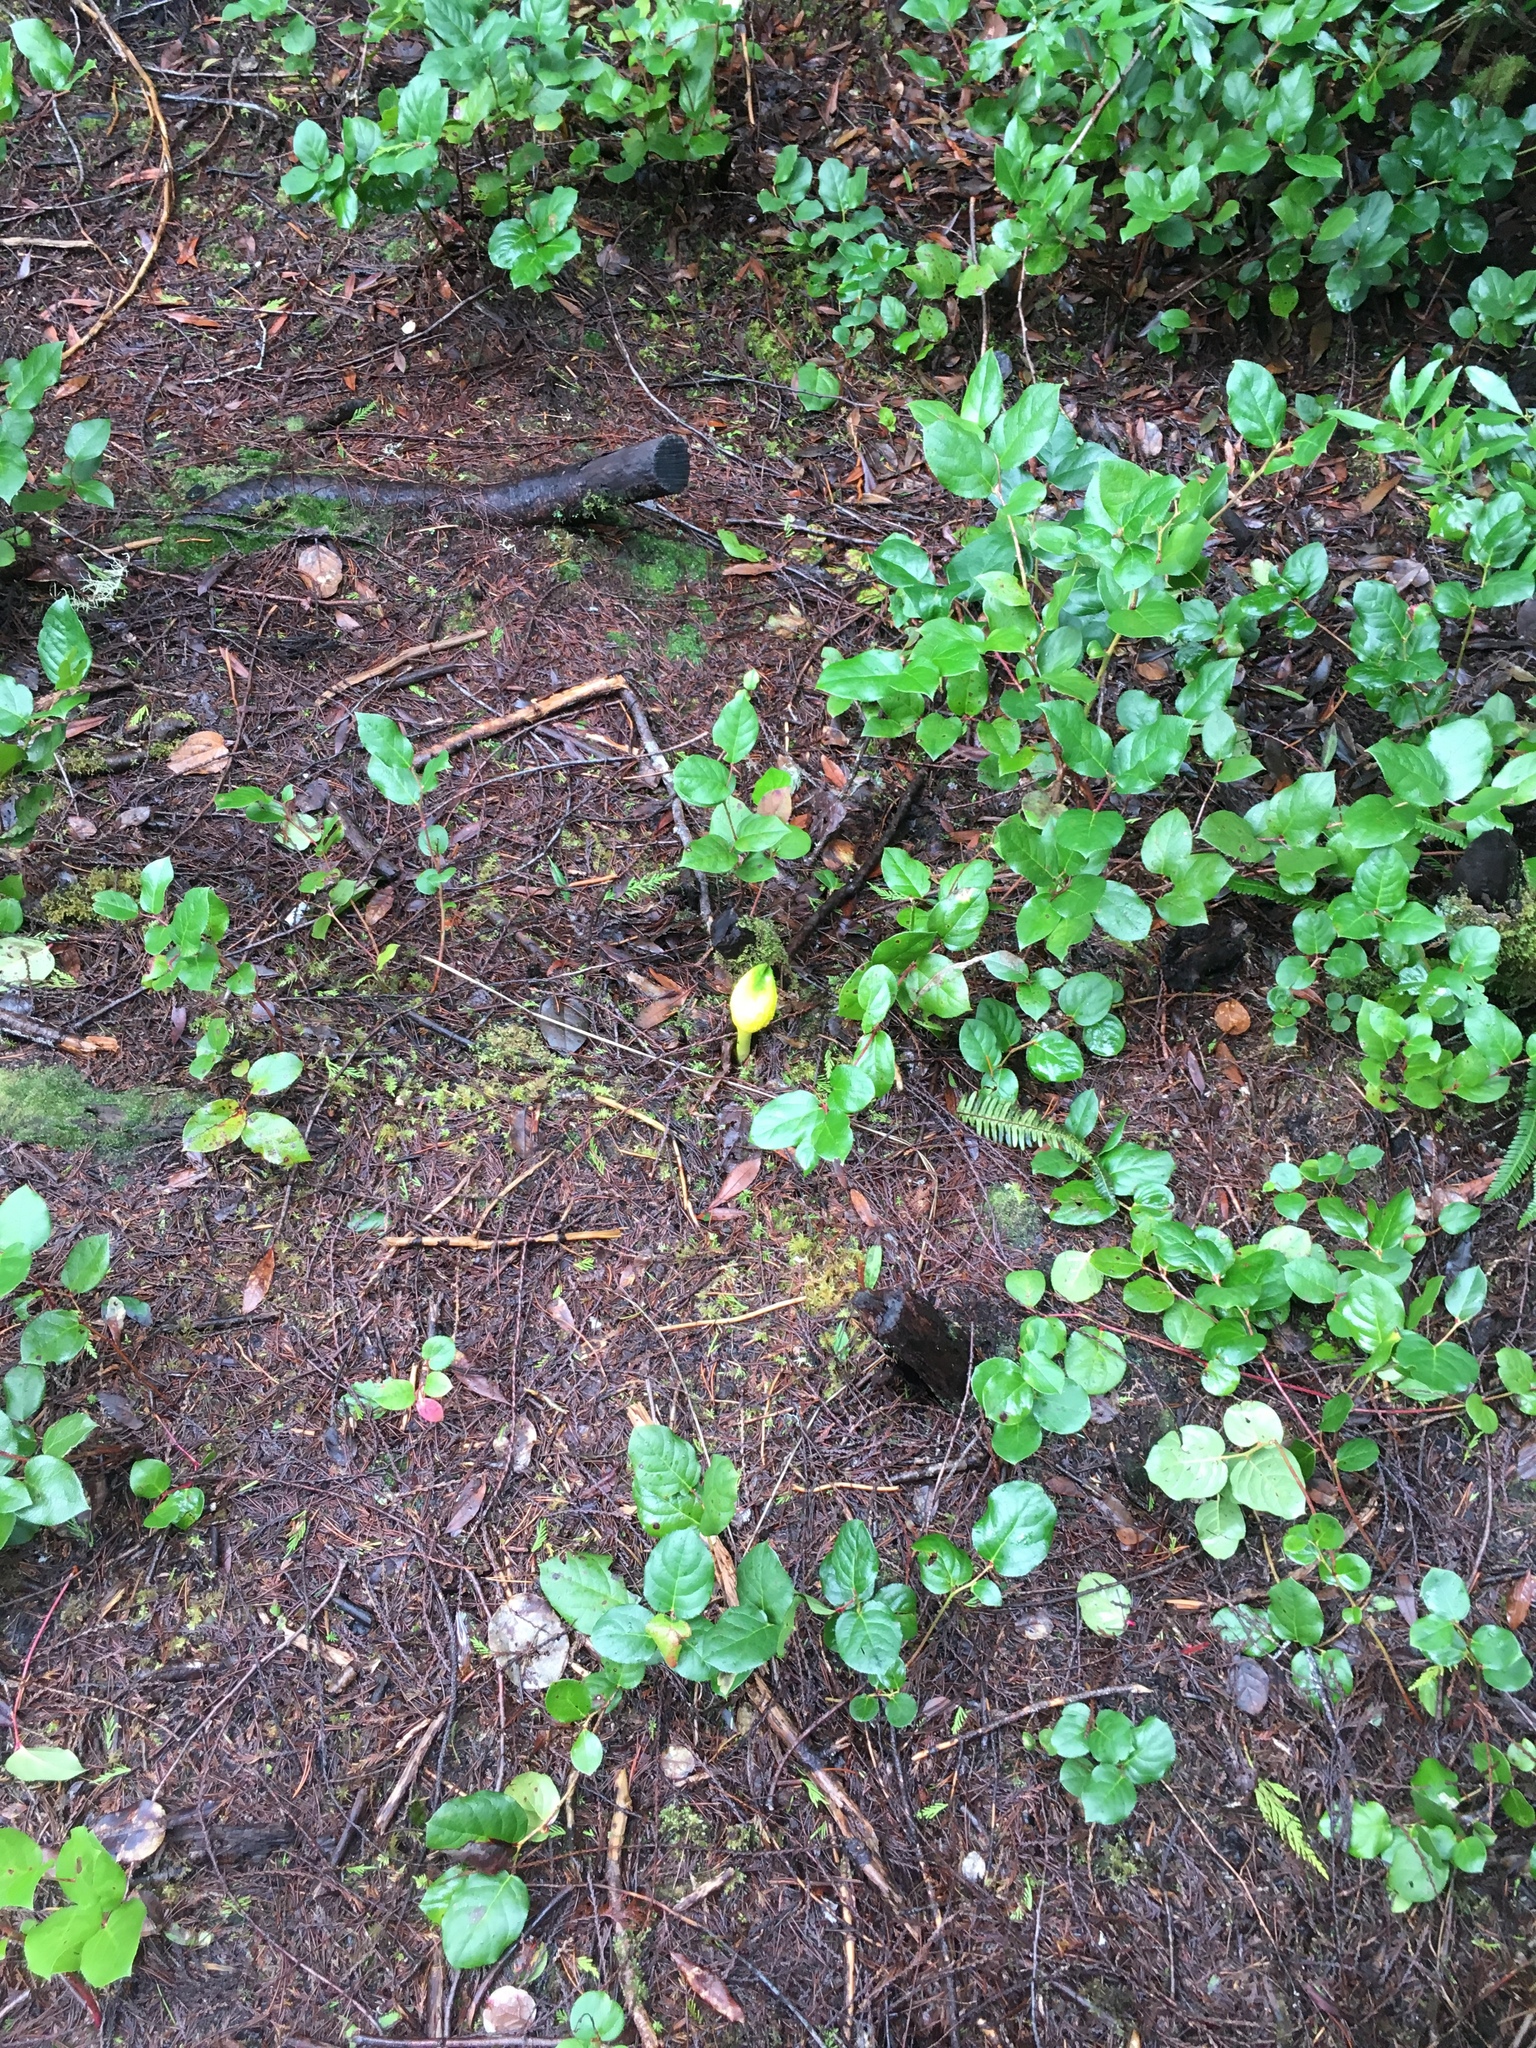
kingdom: Plantae
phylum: Tracheophyta
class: Magnoliopsida
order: Ericales
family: Ericaceae
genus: Gaultheria
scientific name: Gaultheria shallon
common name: Shallon
